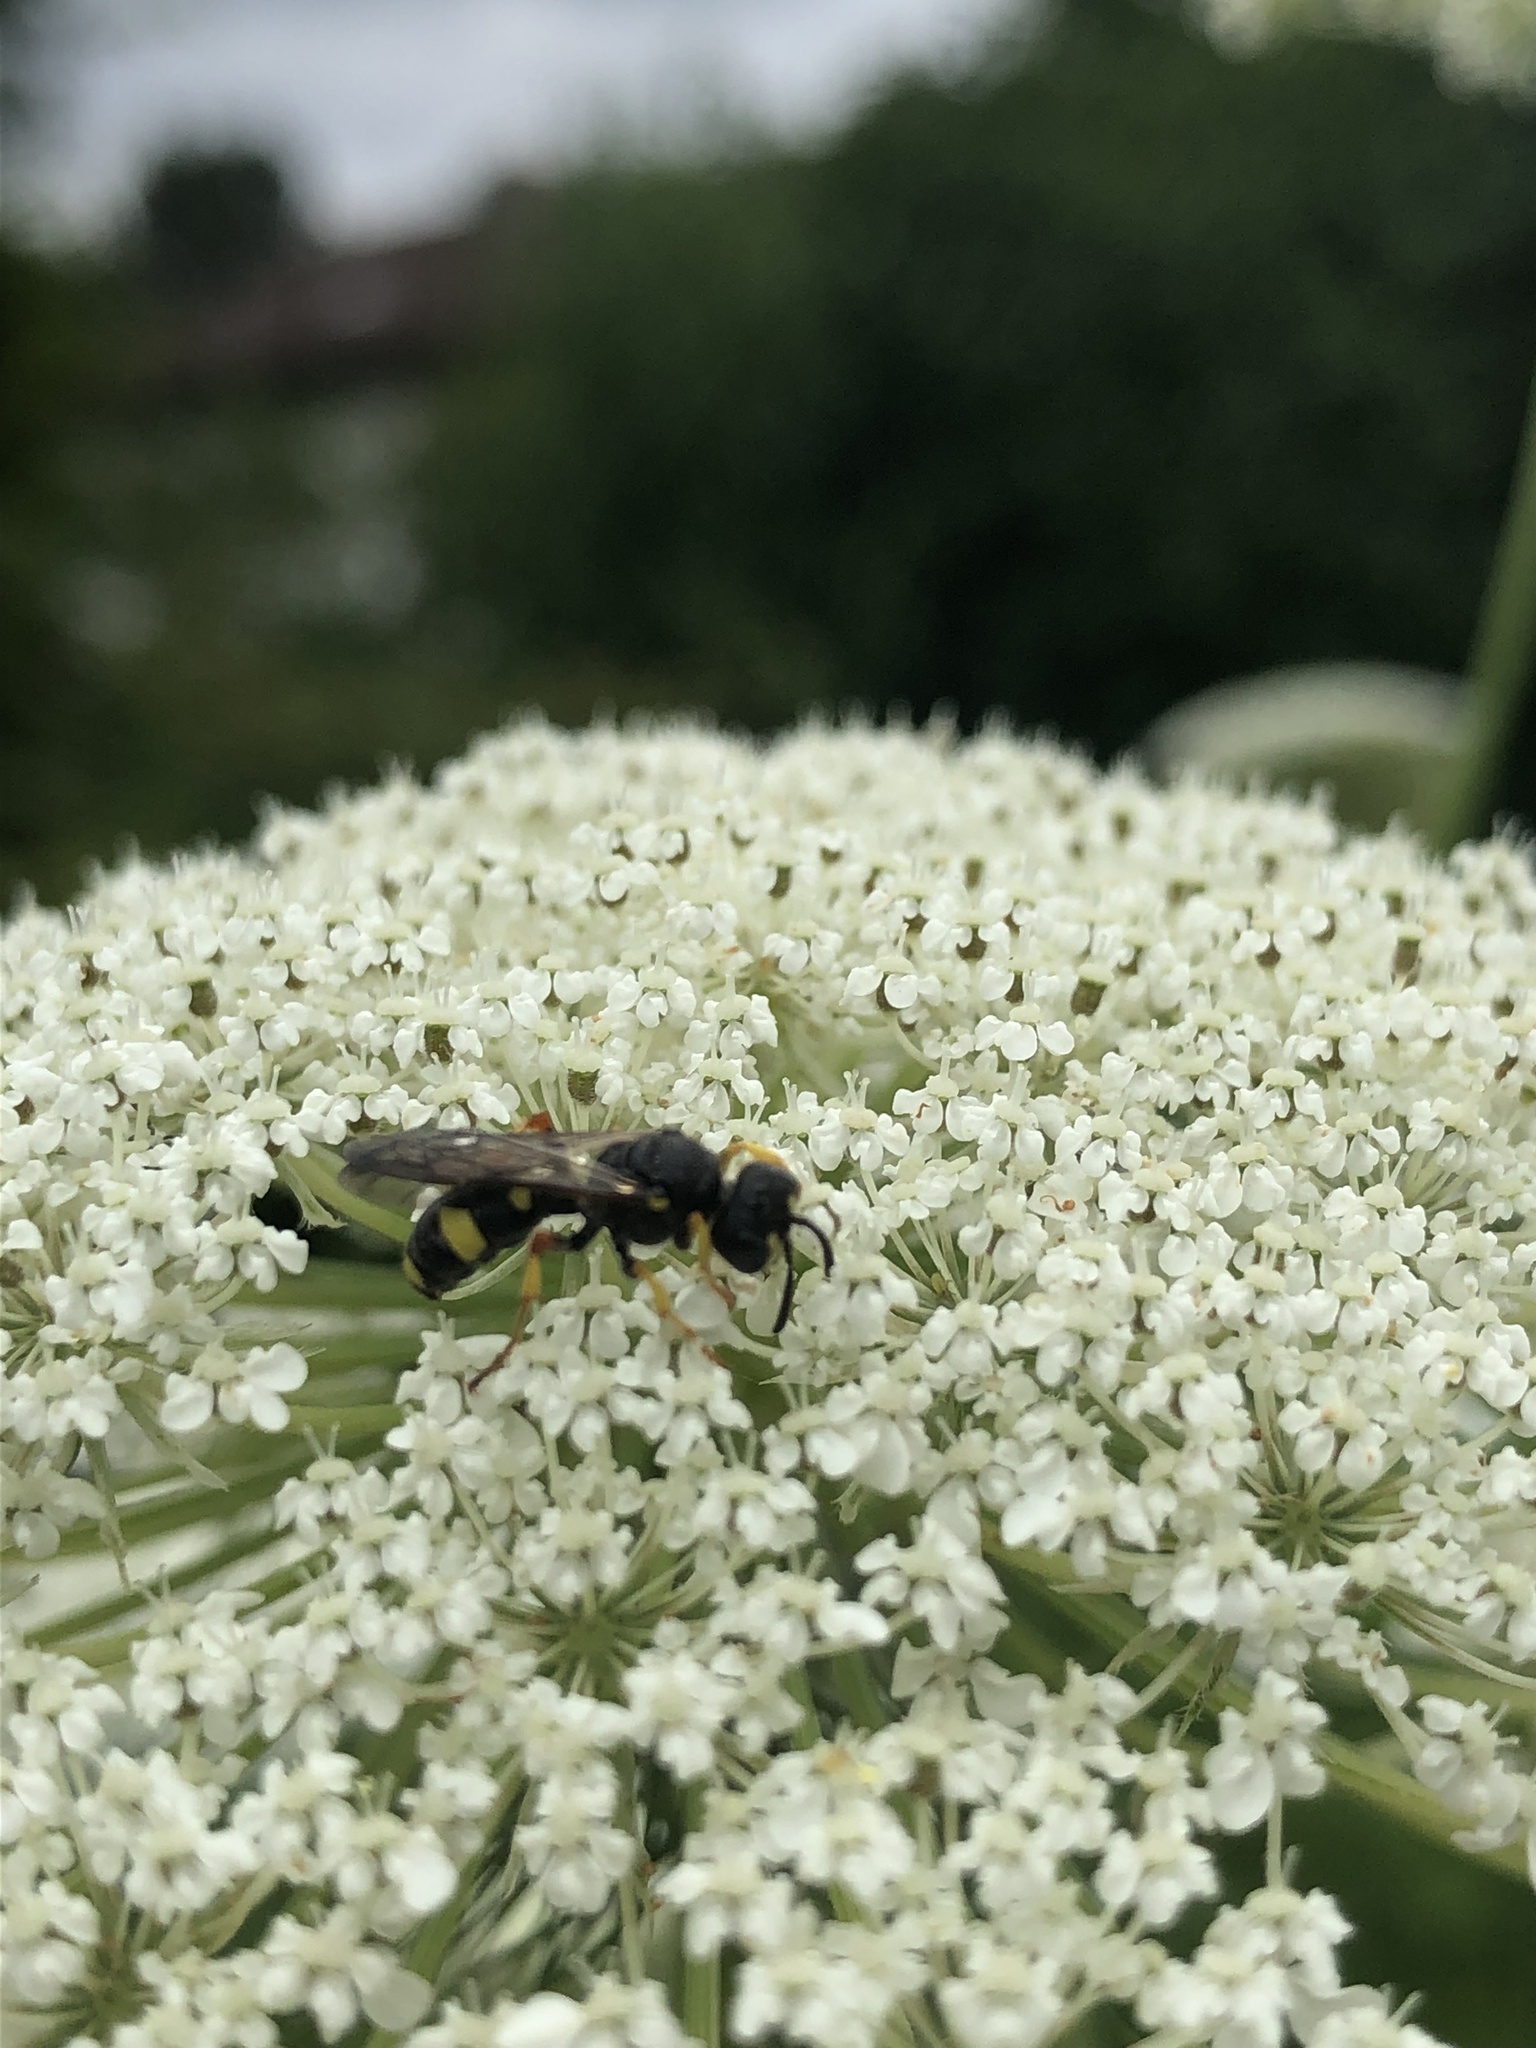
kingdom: Animalia
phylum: Arthropoda
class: Insecta
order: Hymenoptera
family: Crabronidae
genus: Cerceris
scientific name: Cerceris rybyensis
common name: Ornate tailed digger wasp
